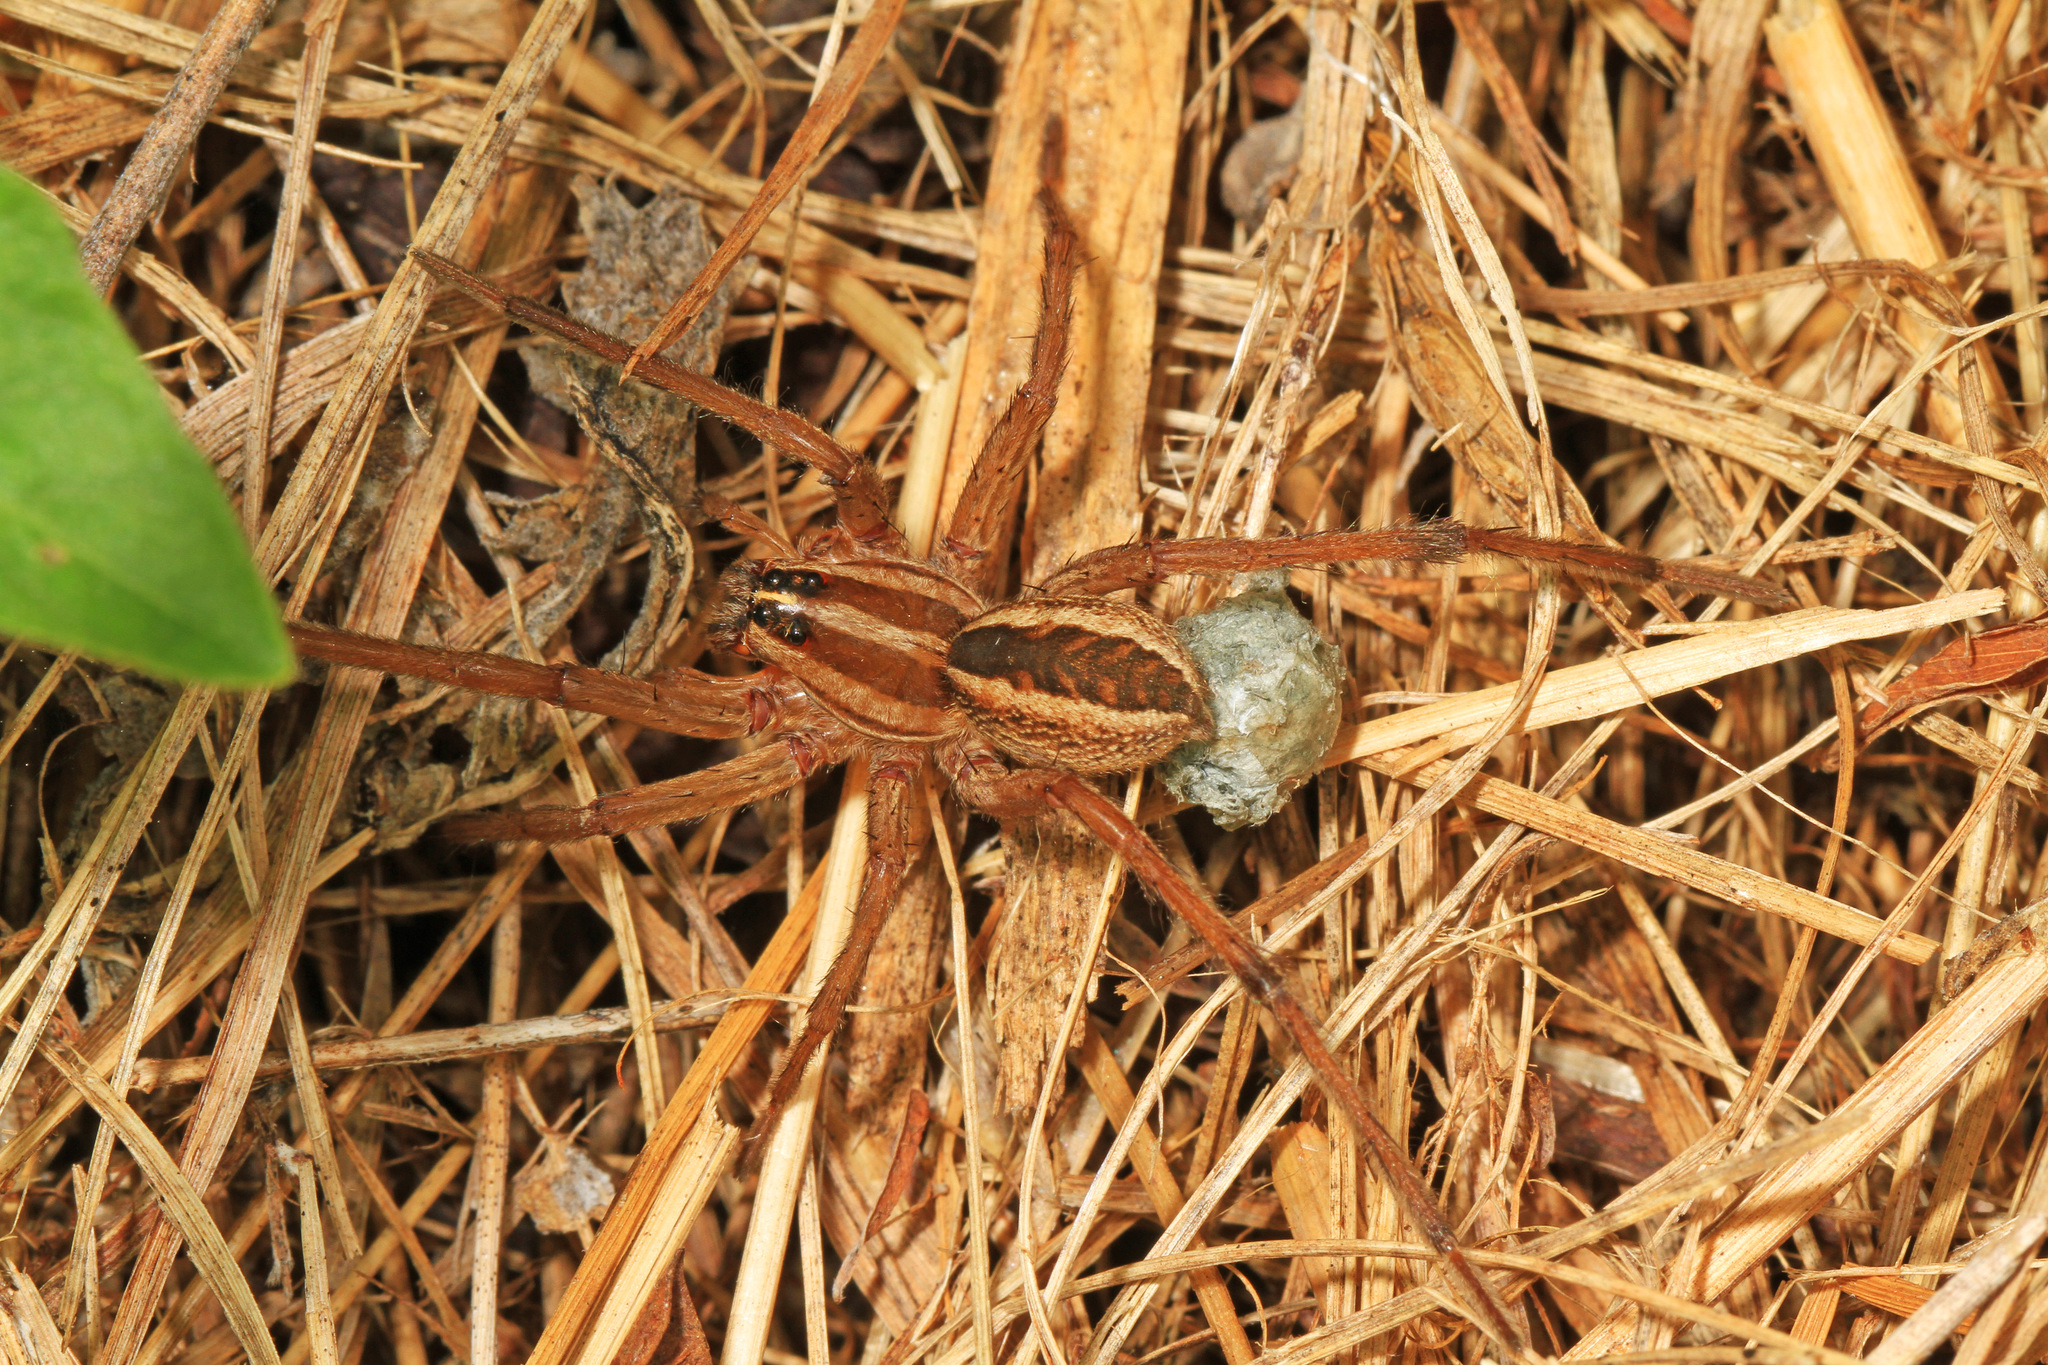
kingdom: Animalia
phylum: Arthropoda
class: Arachnida
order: Araneae
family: Lycosidae
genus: Rabidosa
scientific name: Rabidosa rabida
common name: Rabid wolf spider
